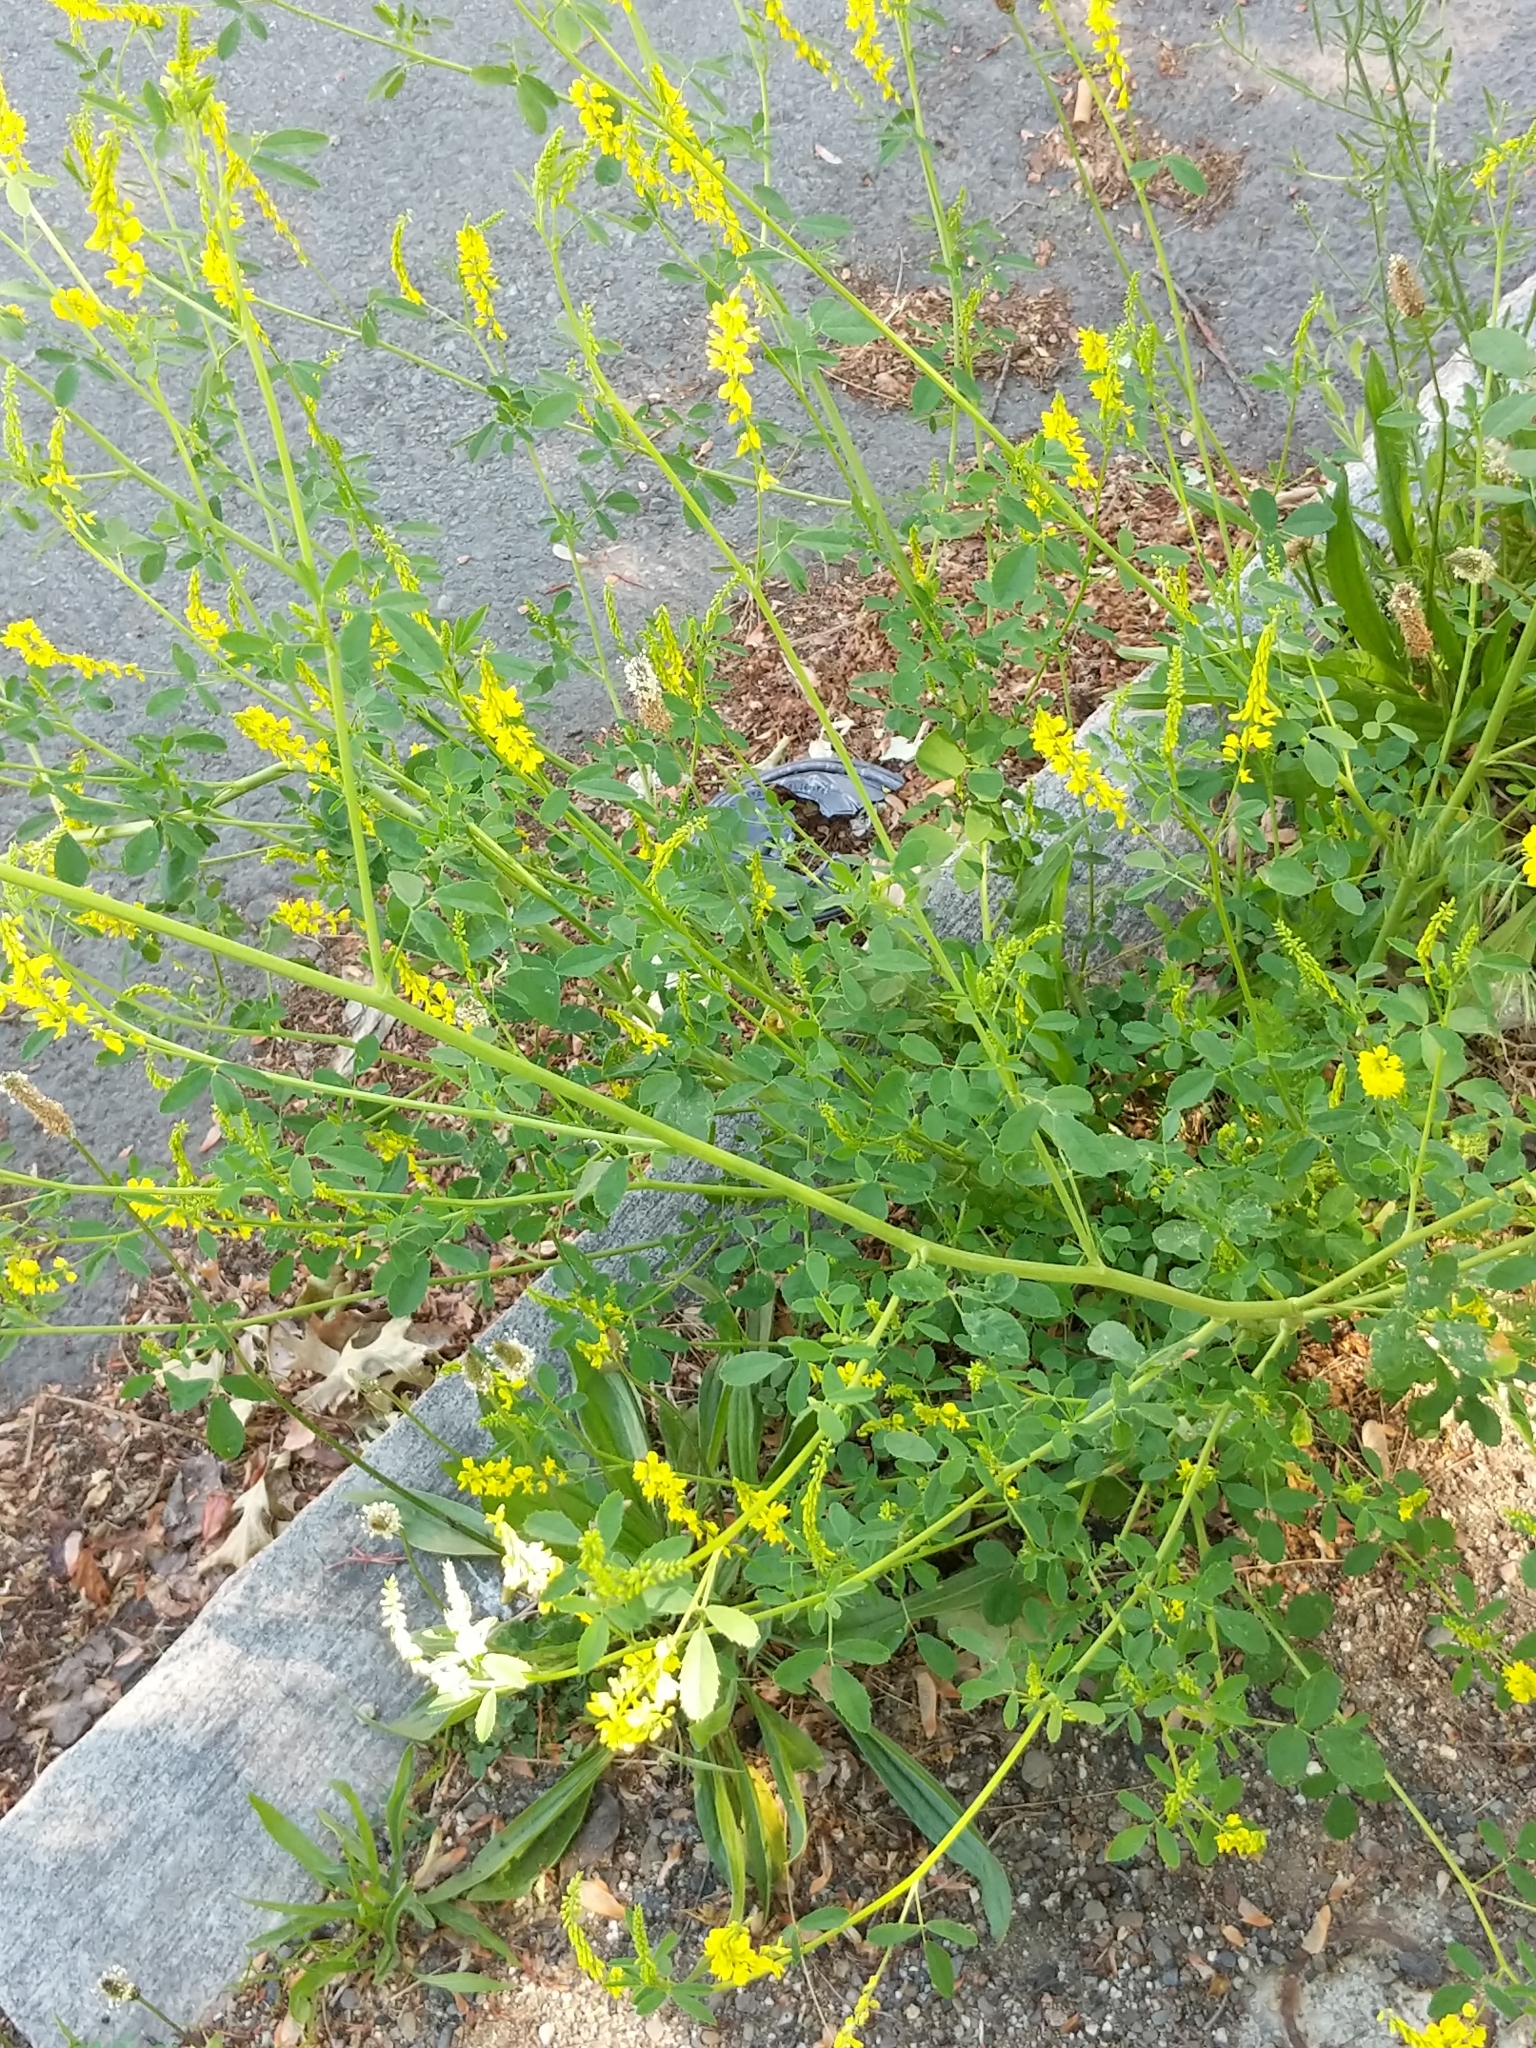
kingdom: Plantae
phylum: Tracheophyta
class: Magnoliopsida
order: Fabales
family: Fabaceae
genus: Melilotus
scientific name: Melilotus officinalis
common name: Sweetclover
